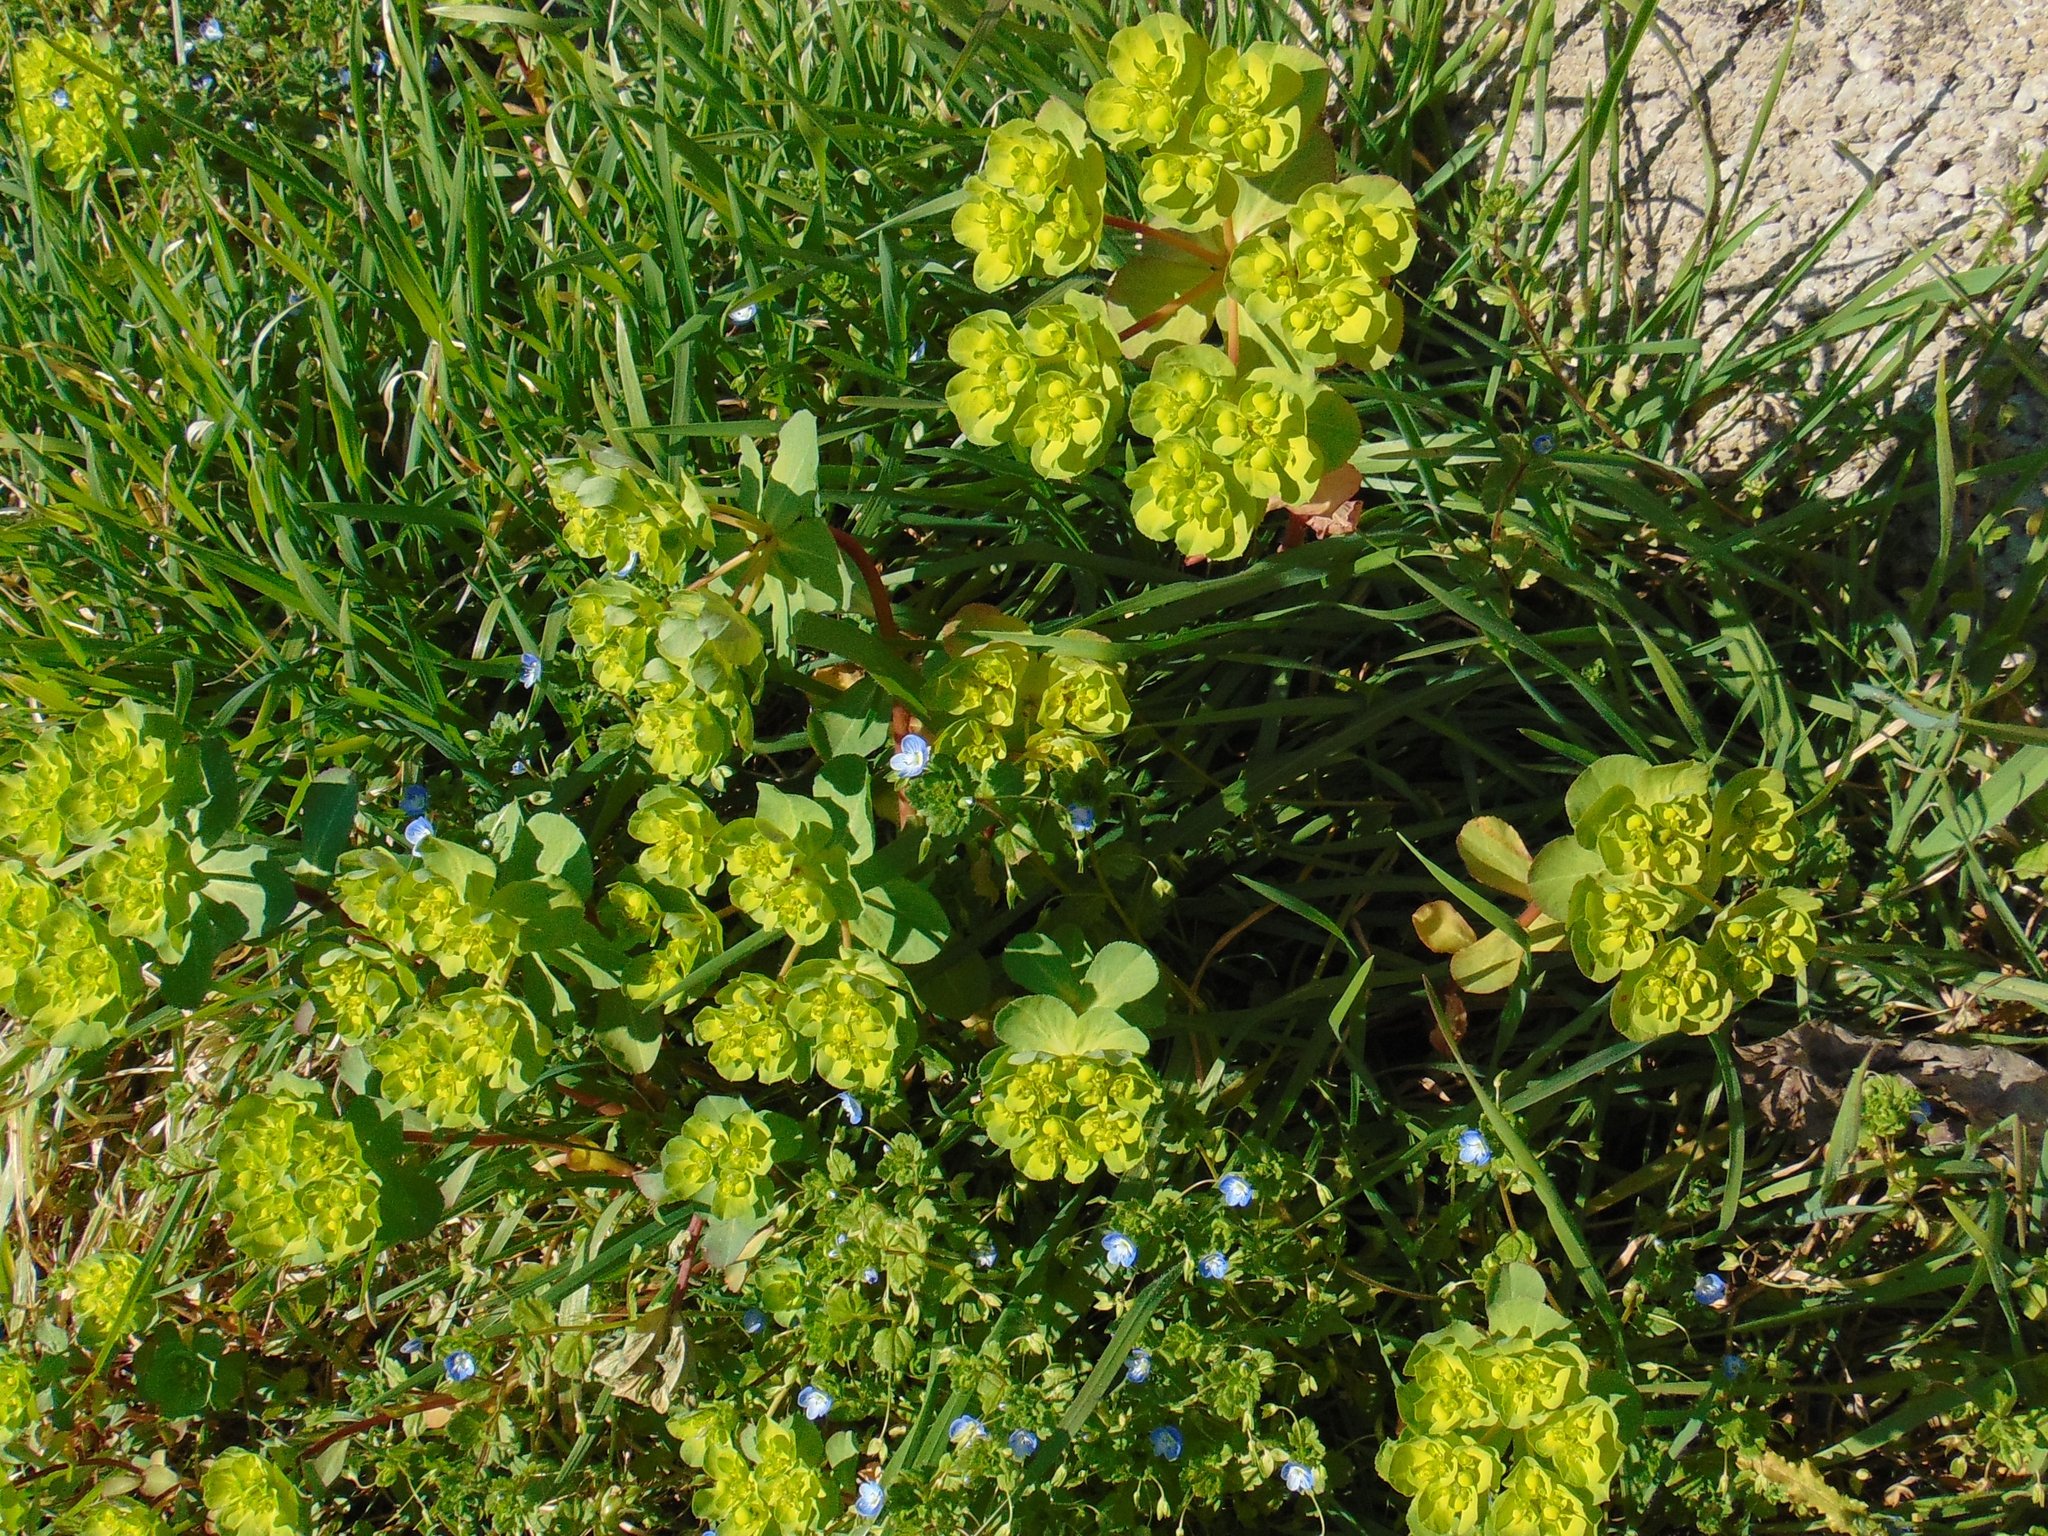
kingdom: Plantae
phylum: Tracheophyta
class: Magnoliopsida
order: Malpighiales
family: Euphorbiaceae
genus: Euphorbia
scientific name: Euphorbia helioscopia
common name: Sun spurge
